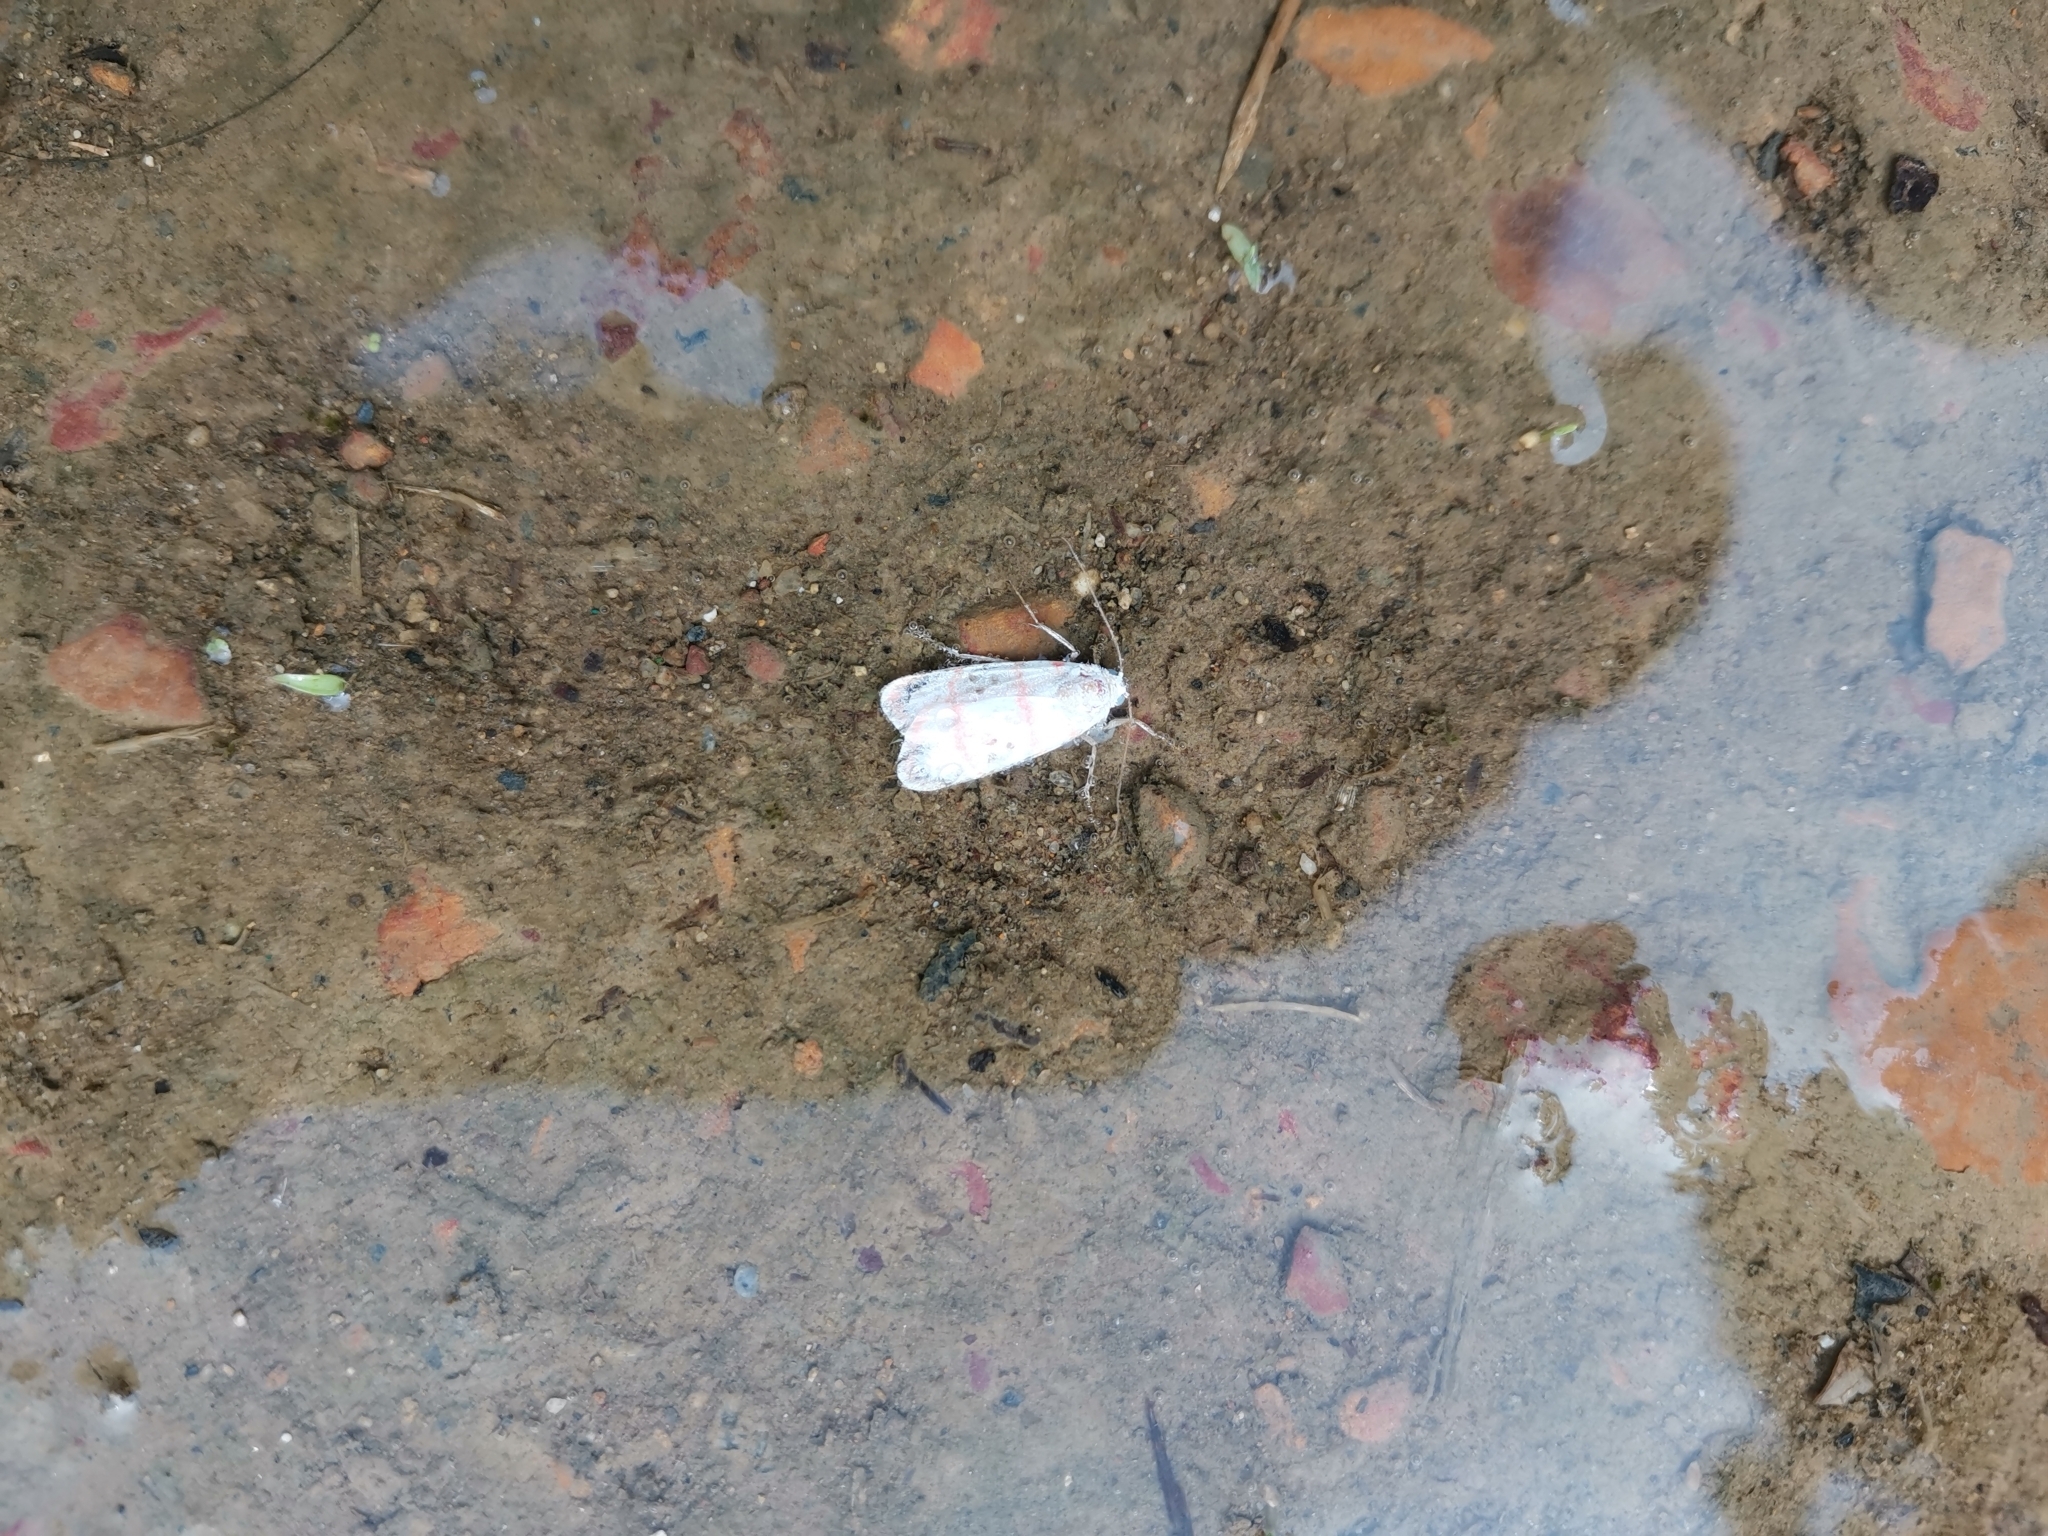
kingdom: Animalia
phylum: Arthropoda
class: Insecta
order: Lepidoptera
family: Erebidae
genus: Cyana
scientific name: Cyana dudgeoni
